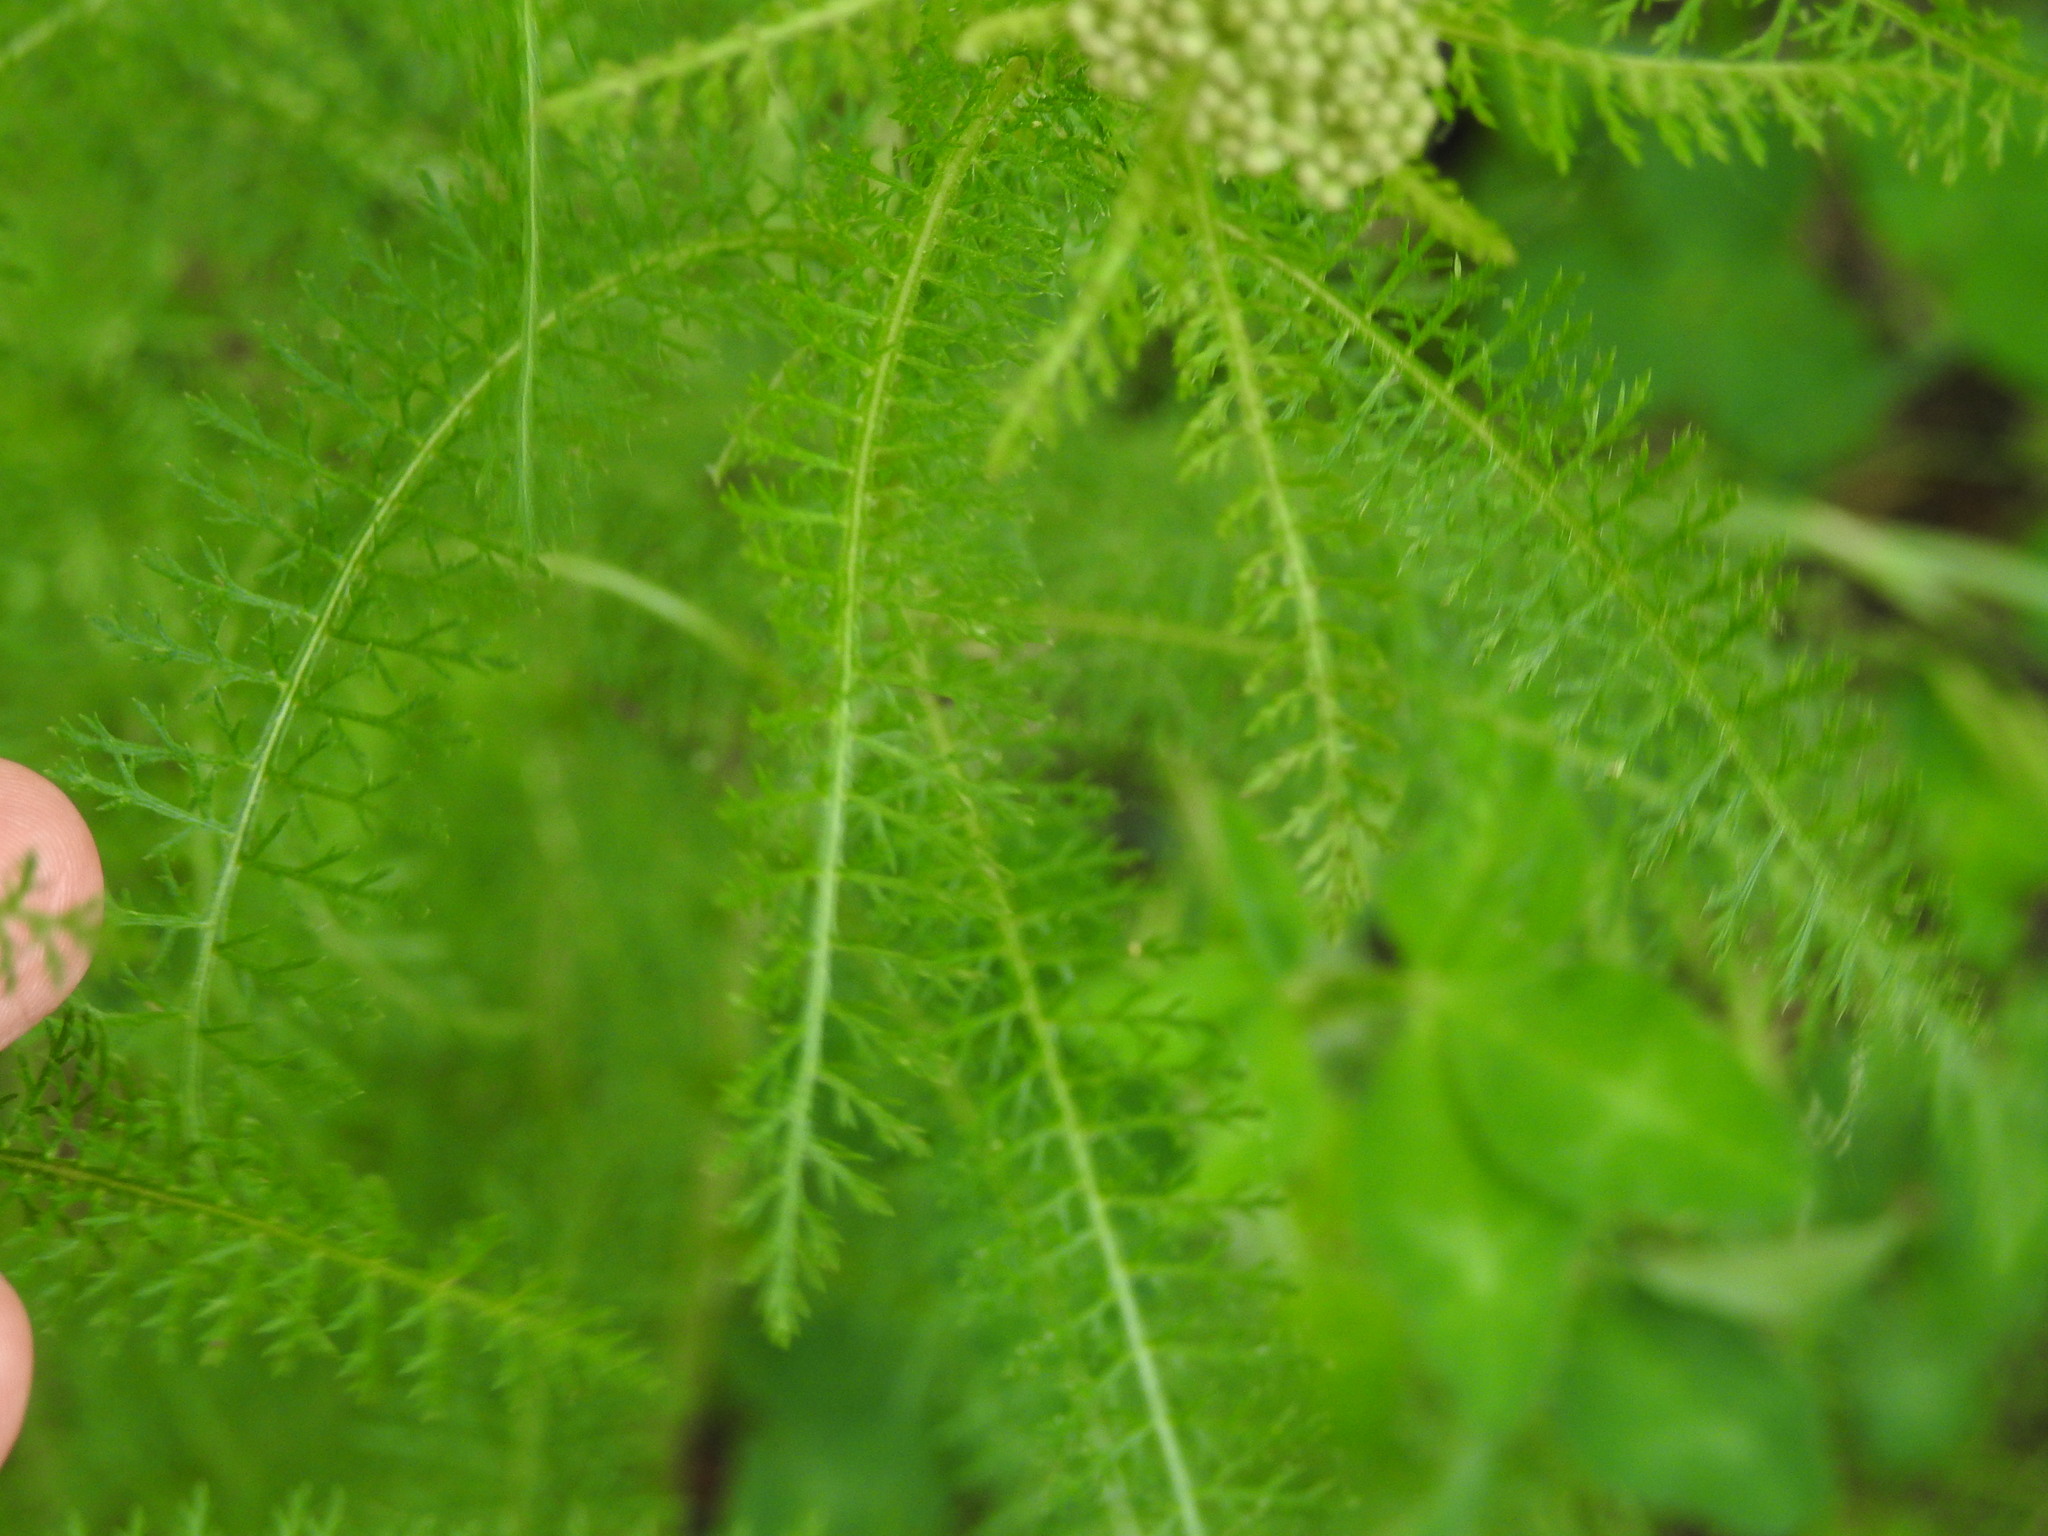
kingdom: Plantae
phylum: Tracheophyta
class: Magnoliopsida
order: Asterales
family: Asteraceae
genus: Achillea
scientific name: Achillea millefolium
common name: Yarrow
